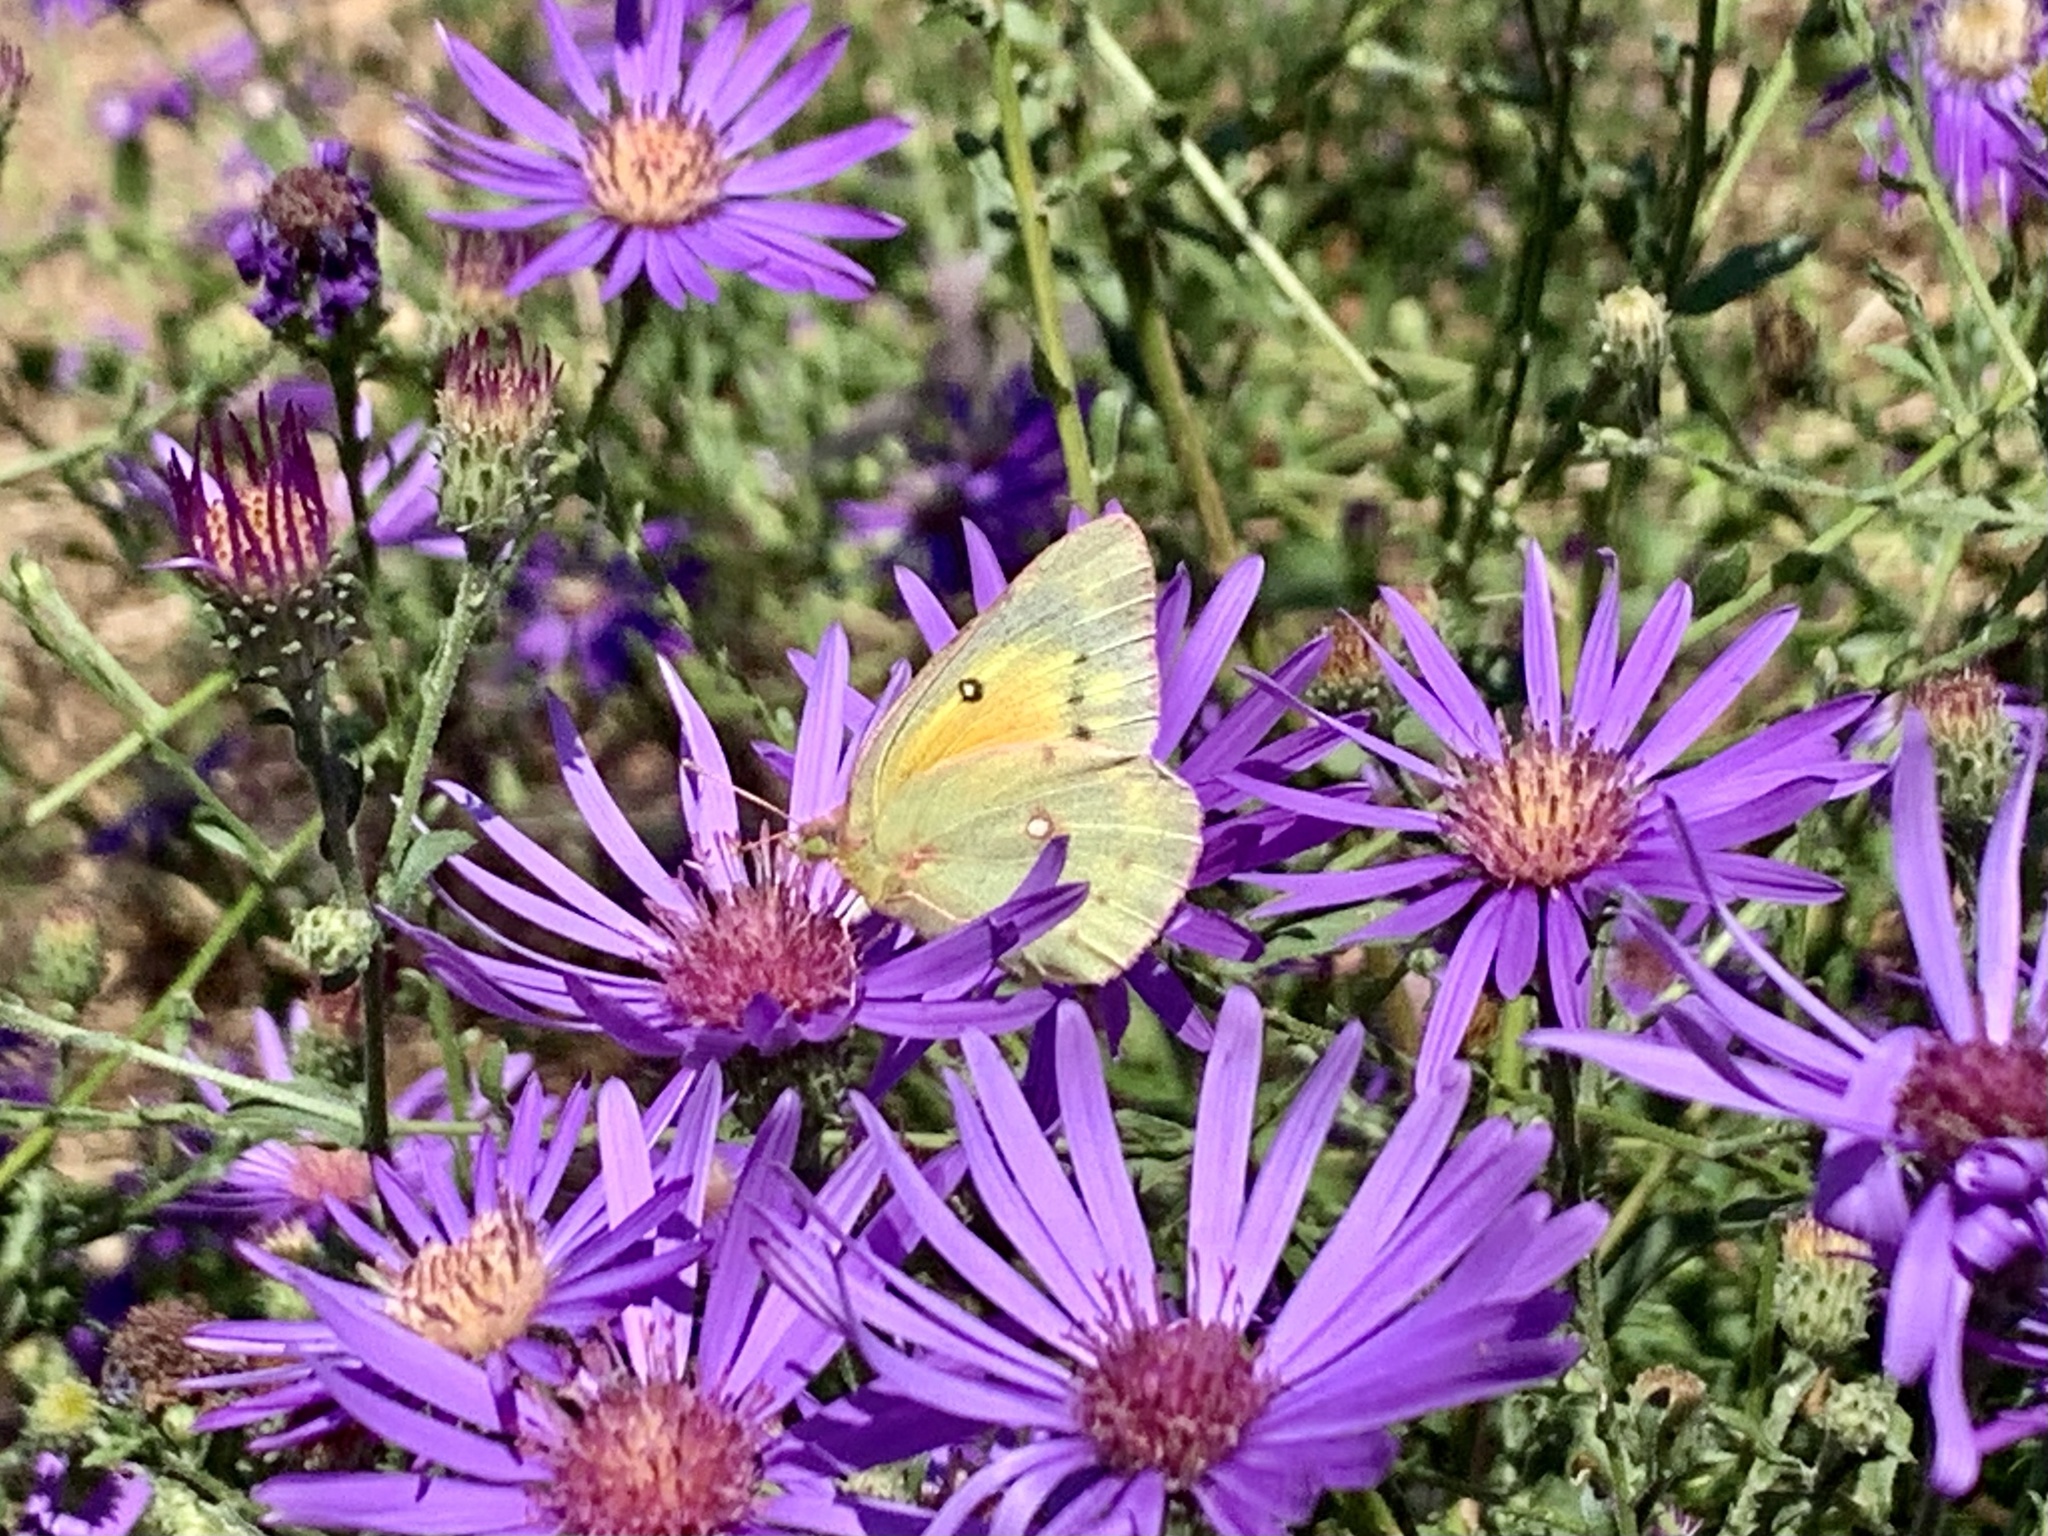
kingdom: Animalia
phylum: Arthropoda
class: Insecta
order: Lepidoptera
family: Pieridae
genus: Colias
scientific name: Colias eurytheme
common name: Alfalfa butterfly
